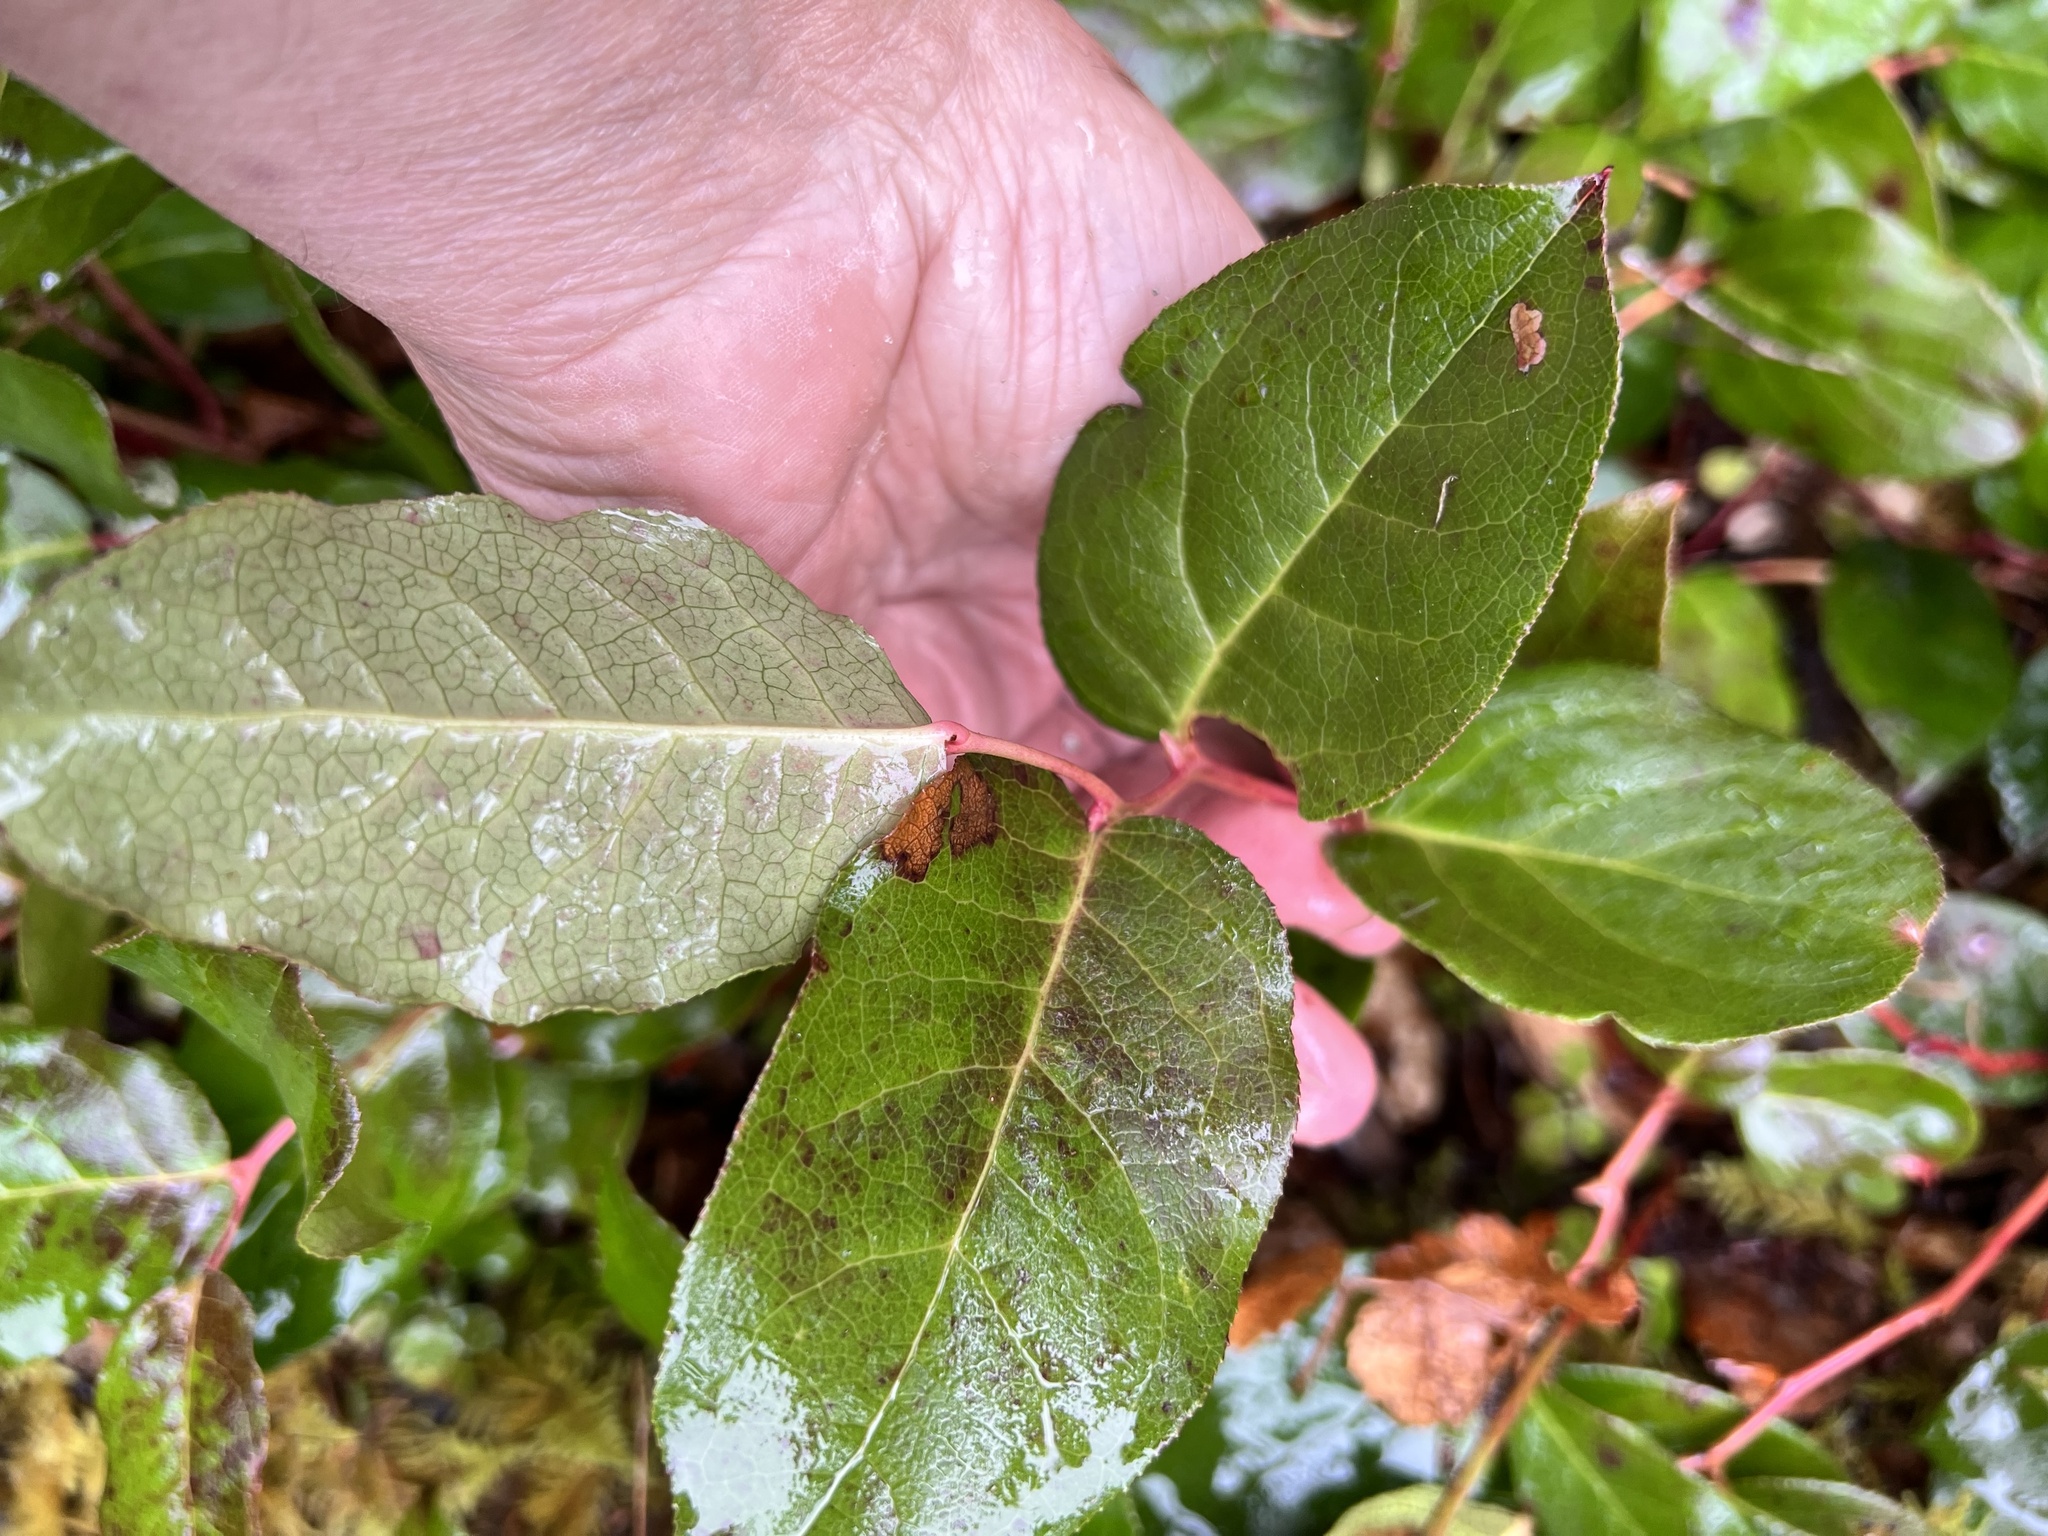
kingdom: Plantae
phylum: Tracheophyta
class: Magnoliopsida
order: Ericales
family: Ericaceae
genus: Gaultheria
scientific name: Gaultheria shallon
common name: Shallon
